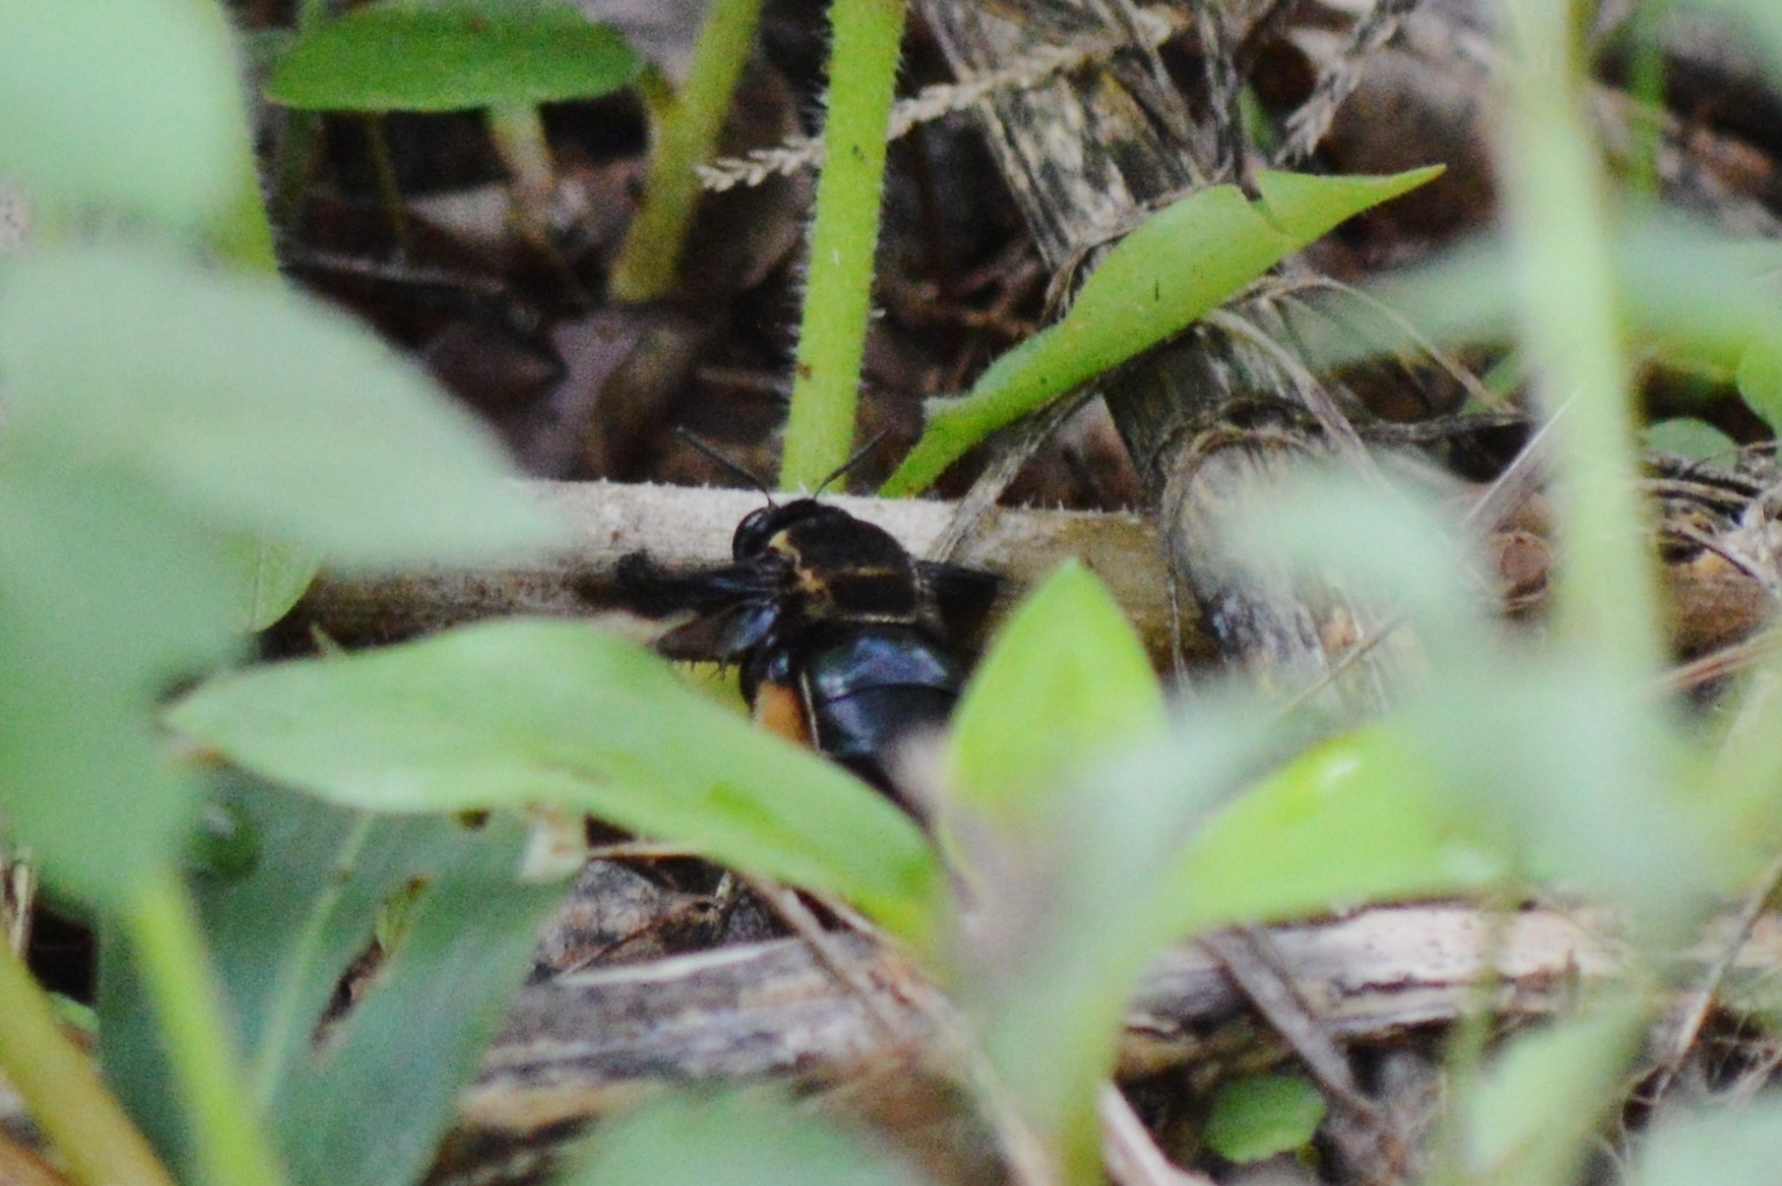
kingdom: Animalia
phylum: Arthropoda
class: Insecta
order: Hymenoptera
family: Apidae
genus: Centris
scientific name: Centris mocsaryi
